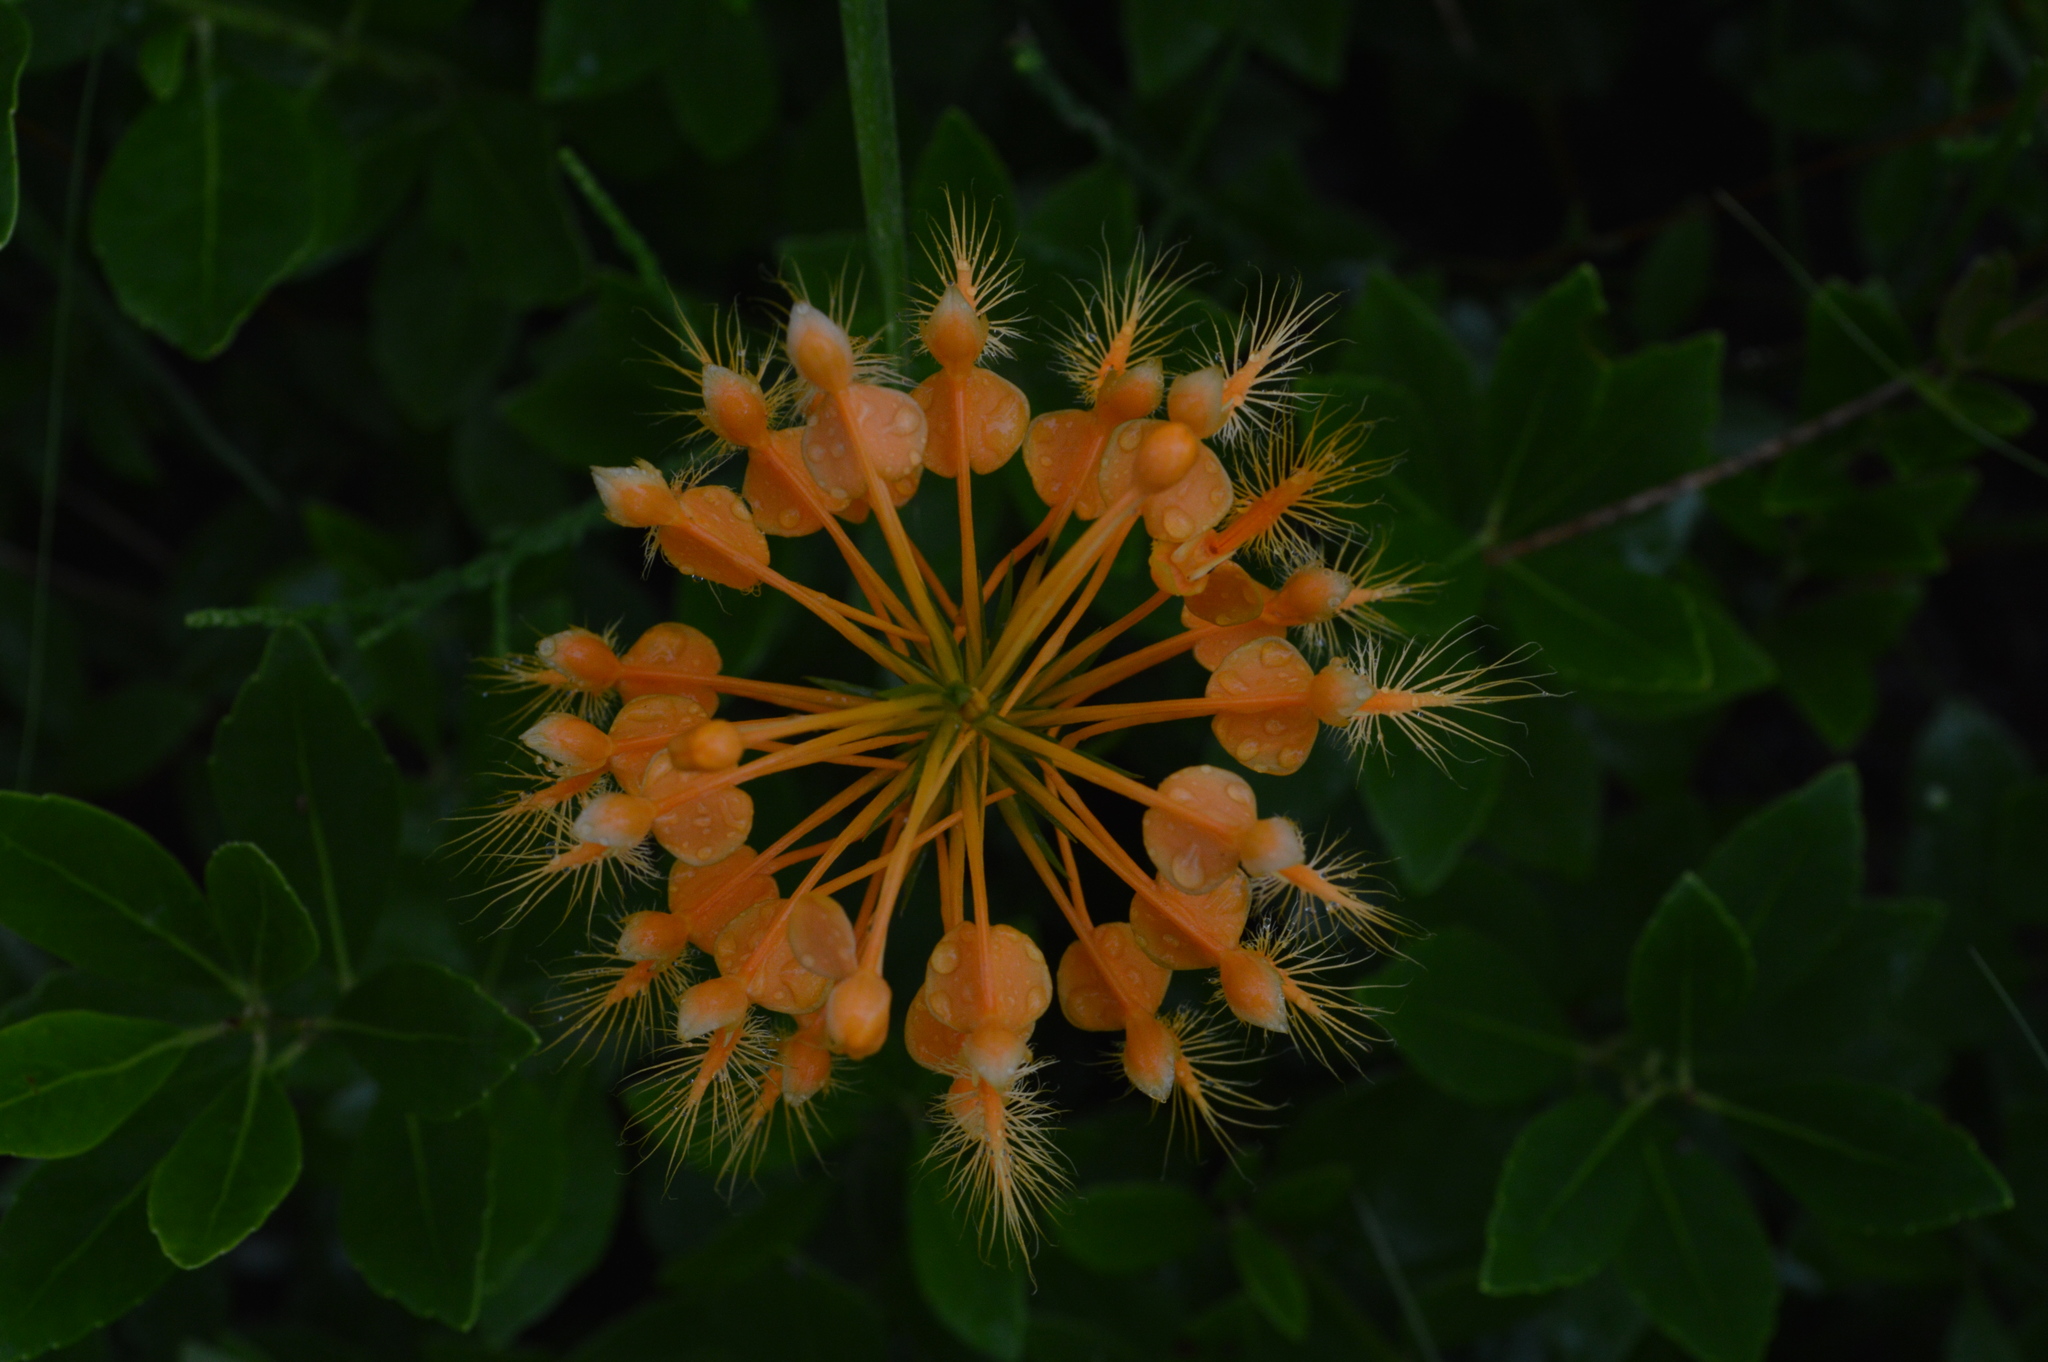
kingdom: Plantae
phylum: Tracheophyta
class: Liliopsida
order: Asparagales
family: Orchidaceae
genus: Platanthera
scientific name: Platanthera ciliaris
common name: Yellow fringed orchid
